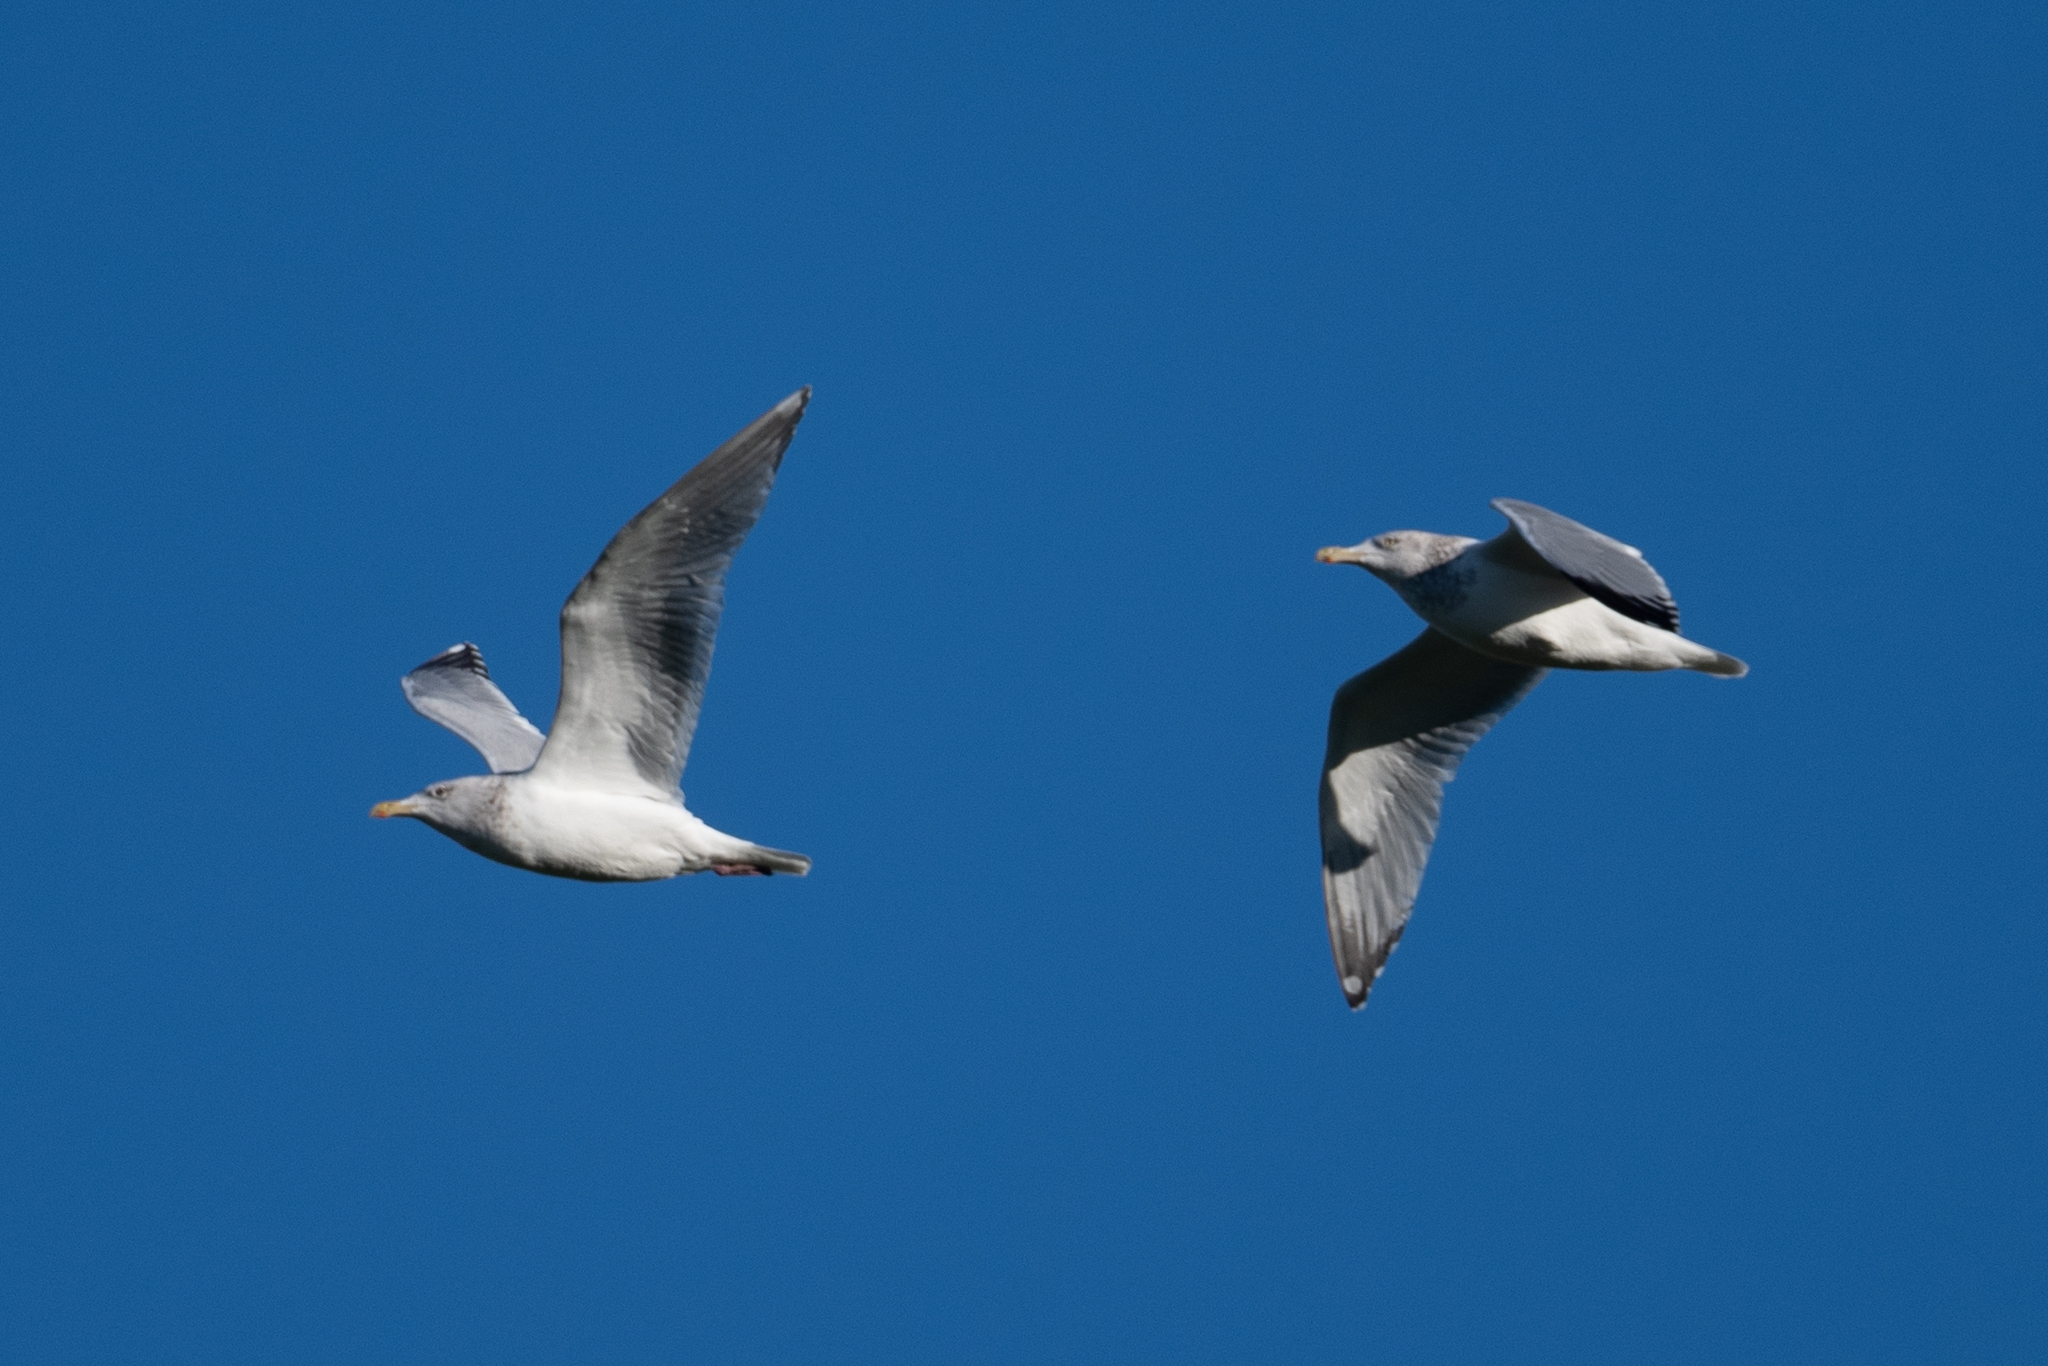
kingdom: Animalia
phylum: Chordata
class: Aves
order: Charadriiformes
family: Laridae
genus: Larus
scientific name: Larus argentatus
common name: Herring gull
